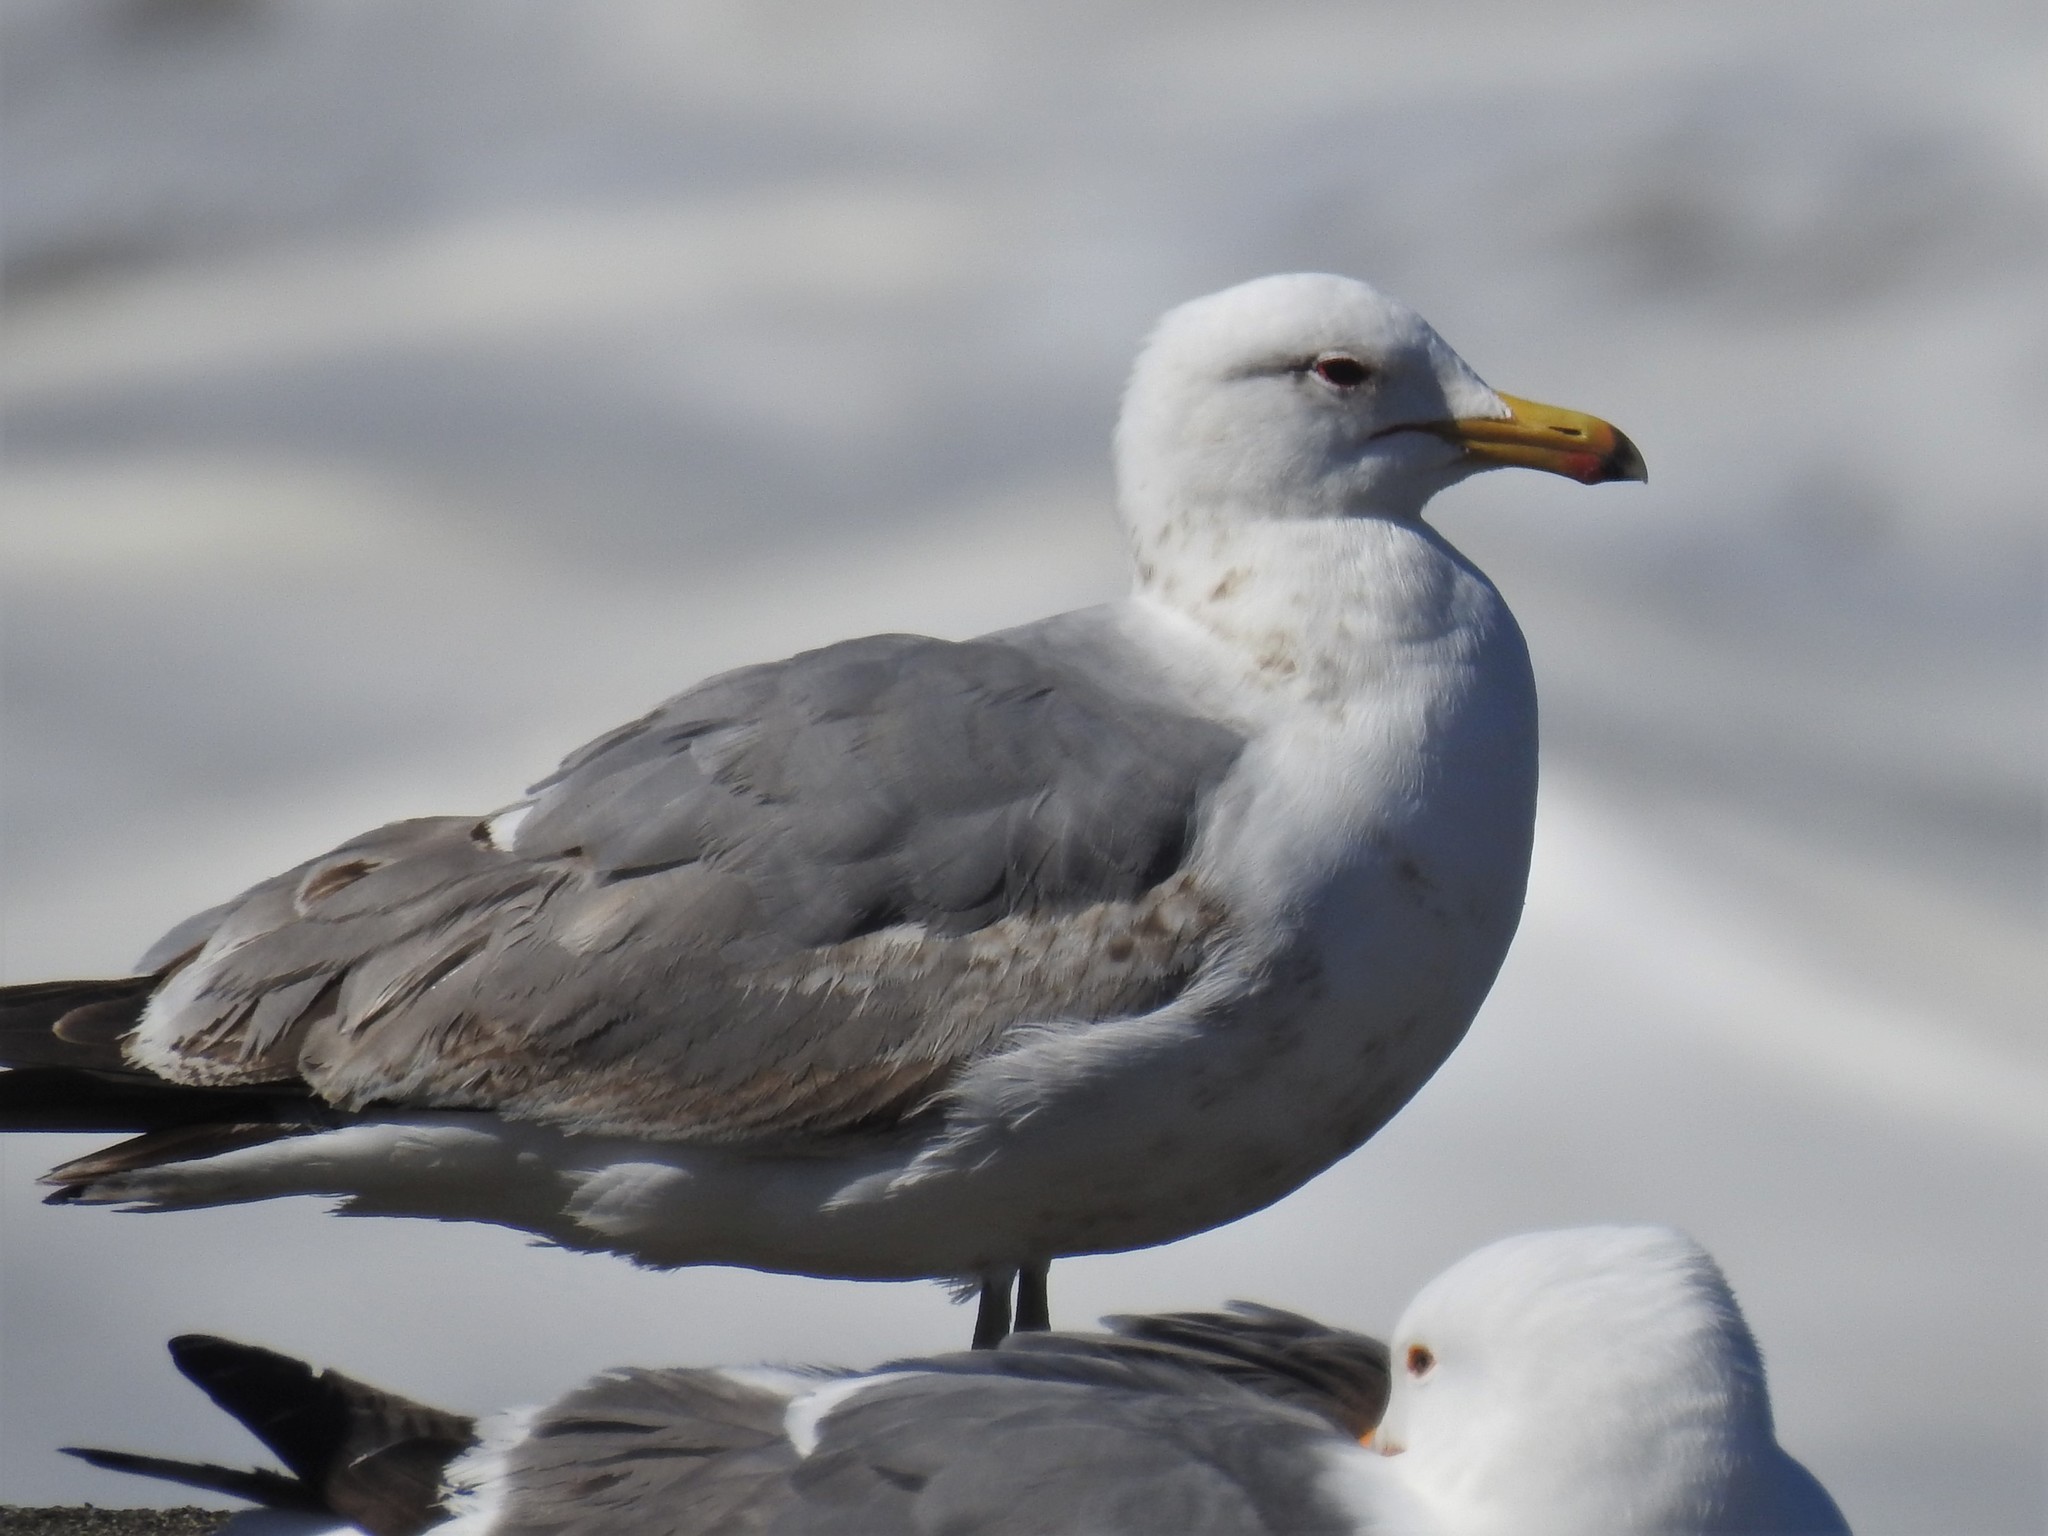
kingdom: Animalia
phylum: Chordata
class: Aves
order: Charadriiformes
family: Laridae
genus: Larus
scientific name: Larus californicus
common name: California gull
